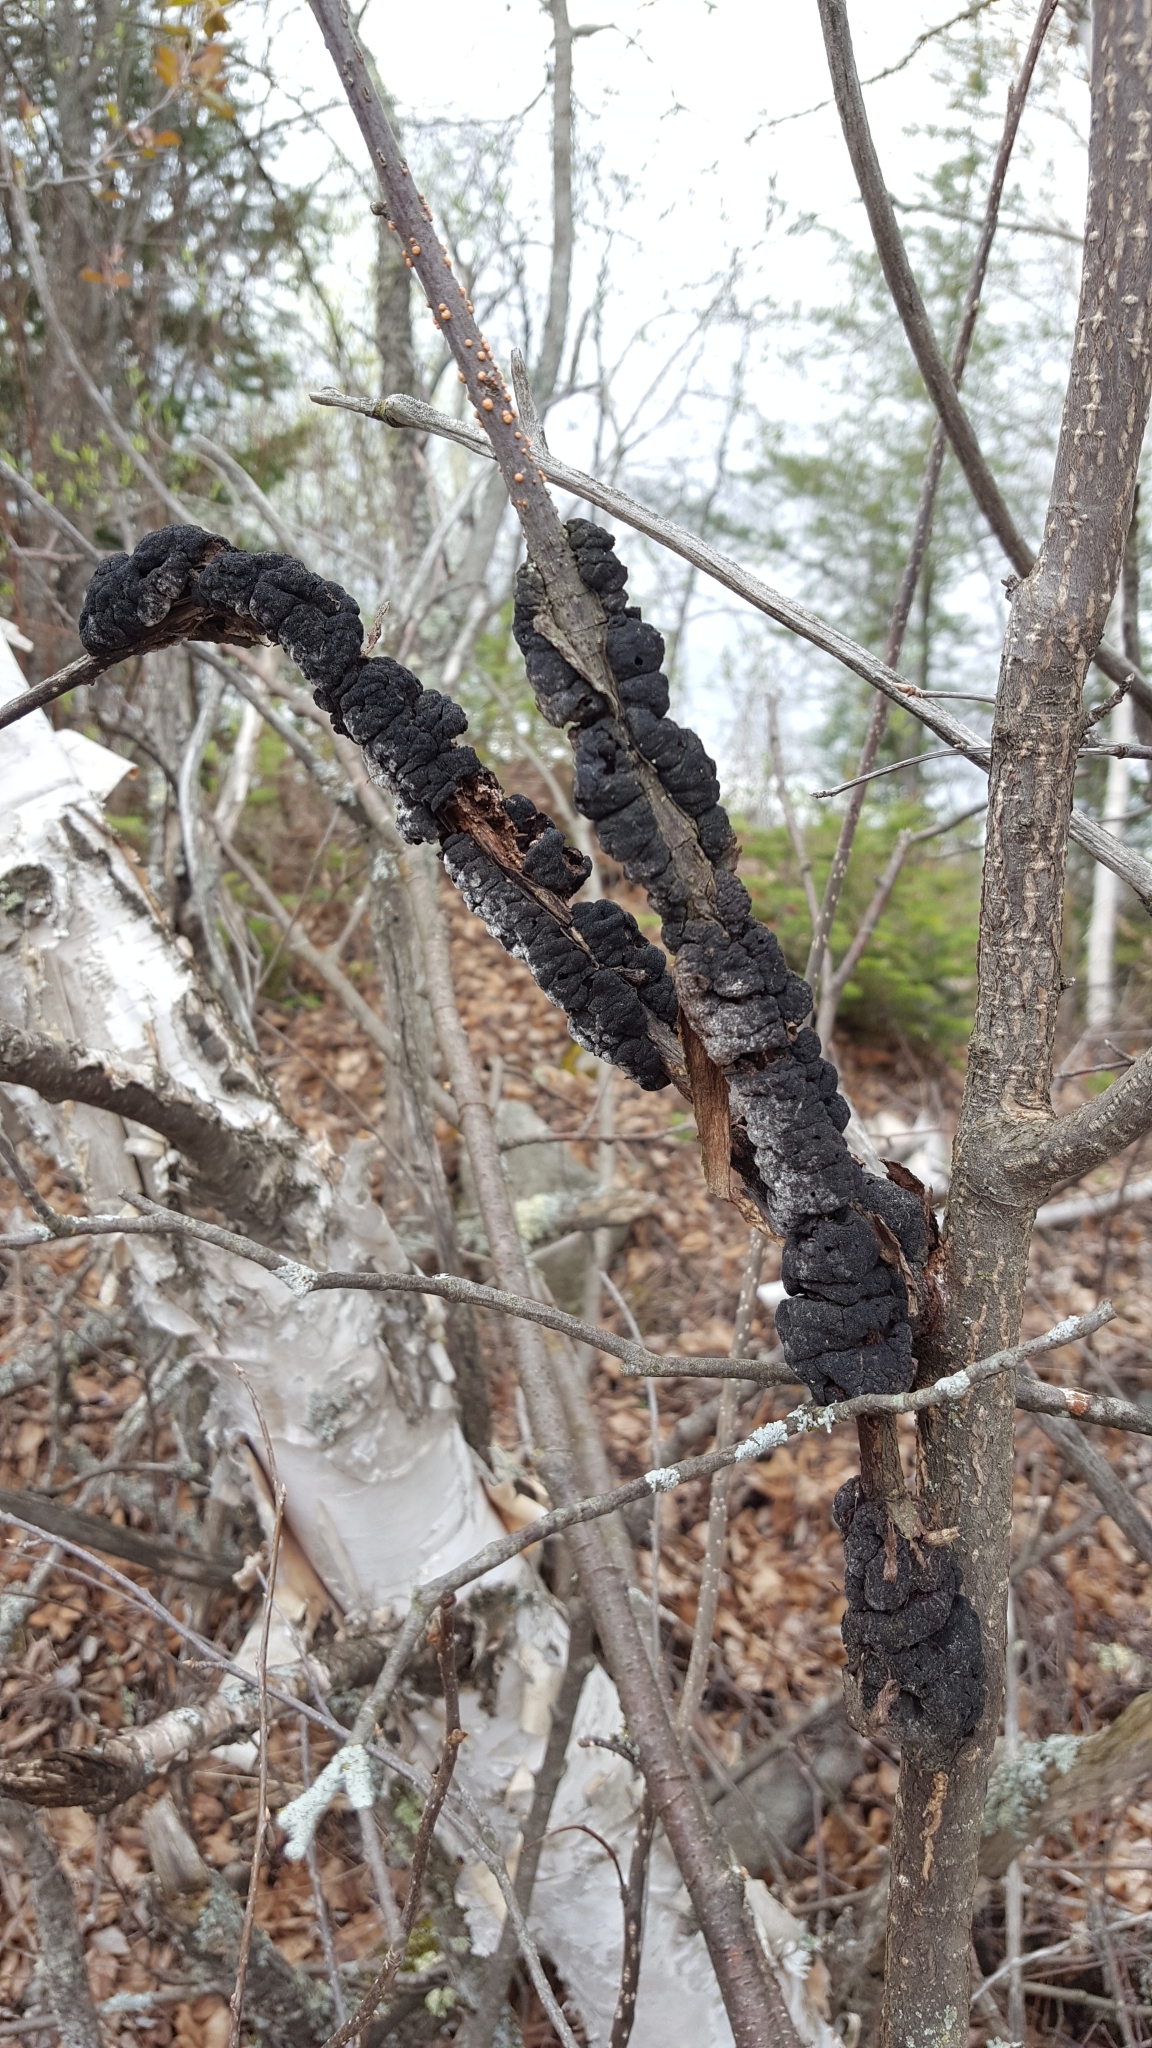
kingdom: Fungi
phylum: Ascomycota
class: Dothideomycetes
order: Venturiales
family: Venturiaceae
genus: Apiosporina
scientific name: Apiosporina morbosa
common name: Black knot
